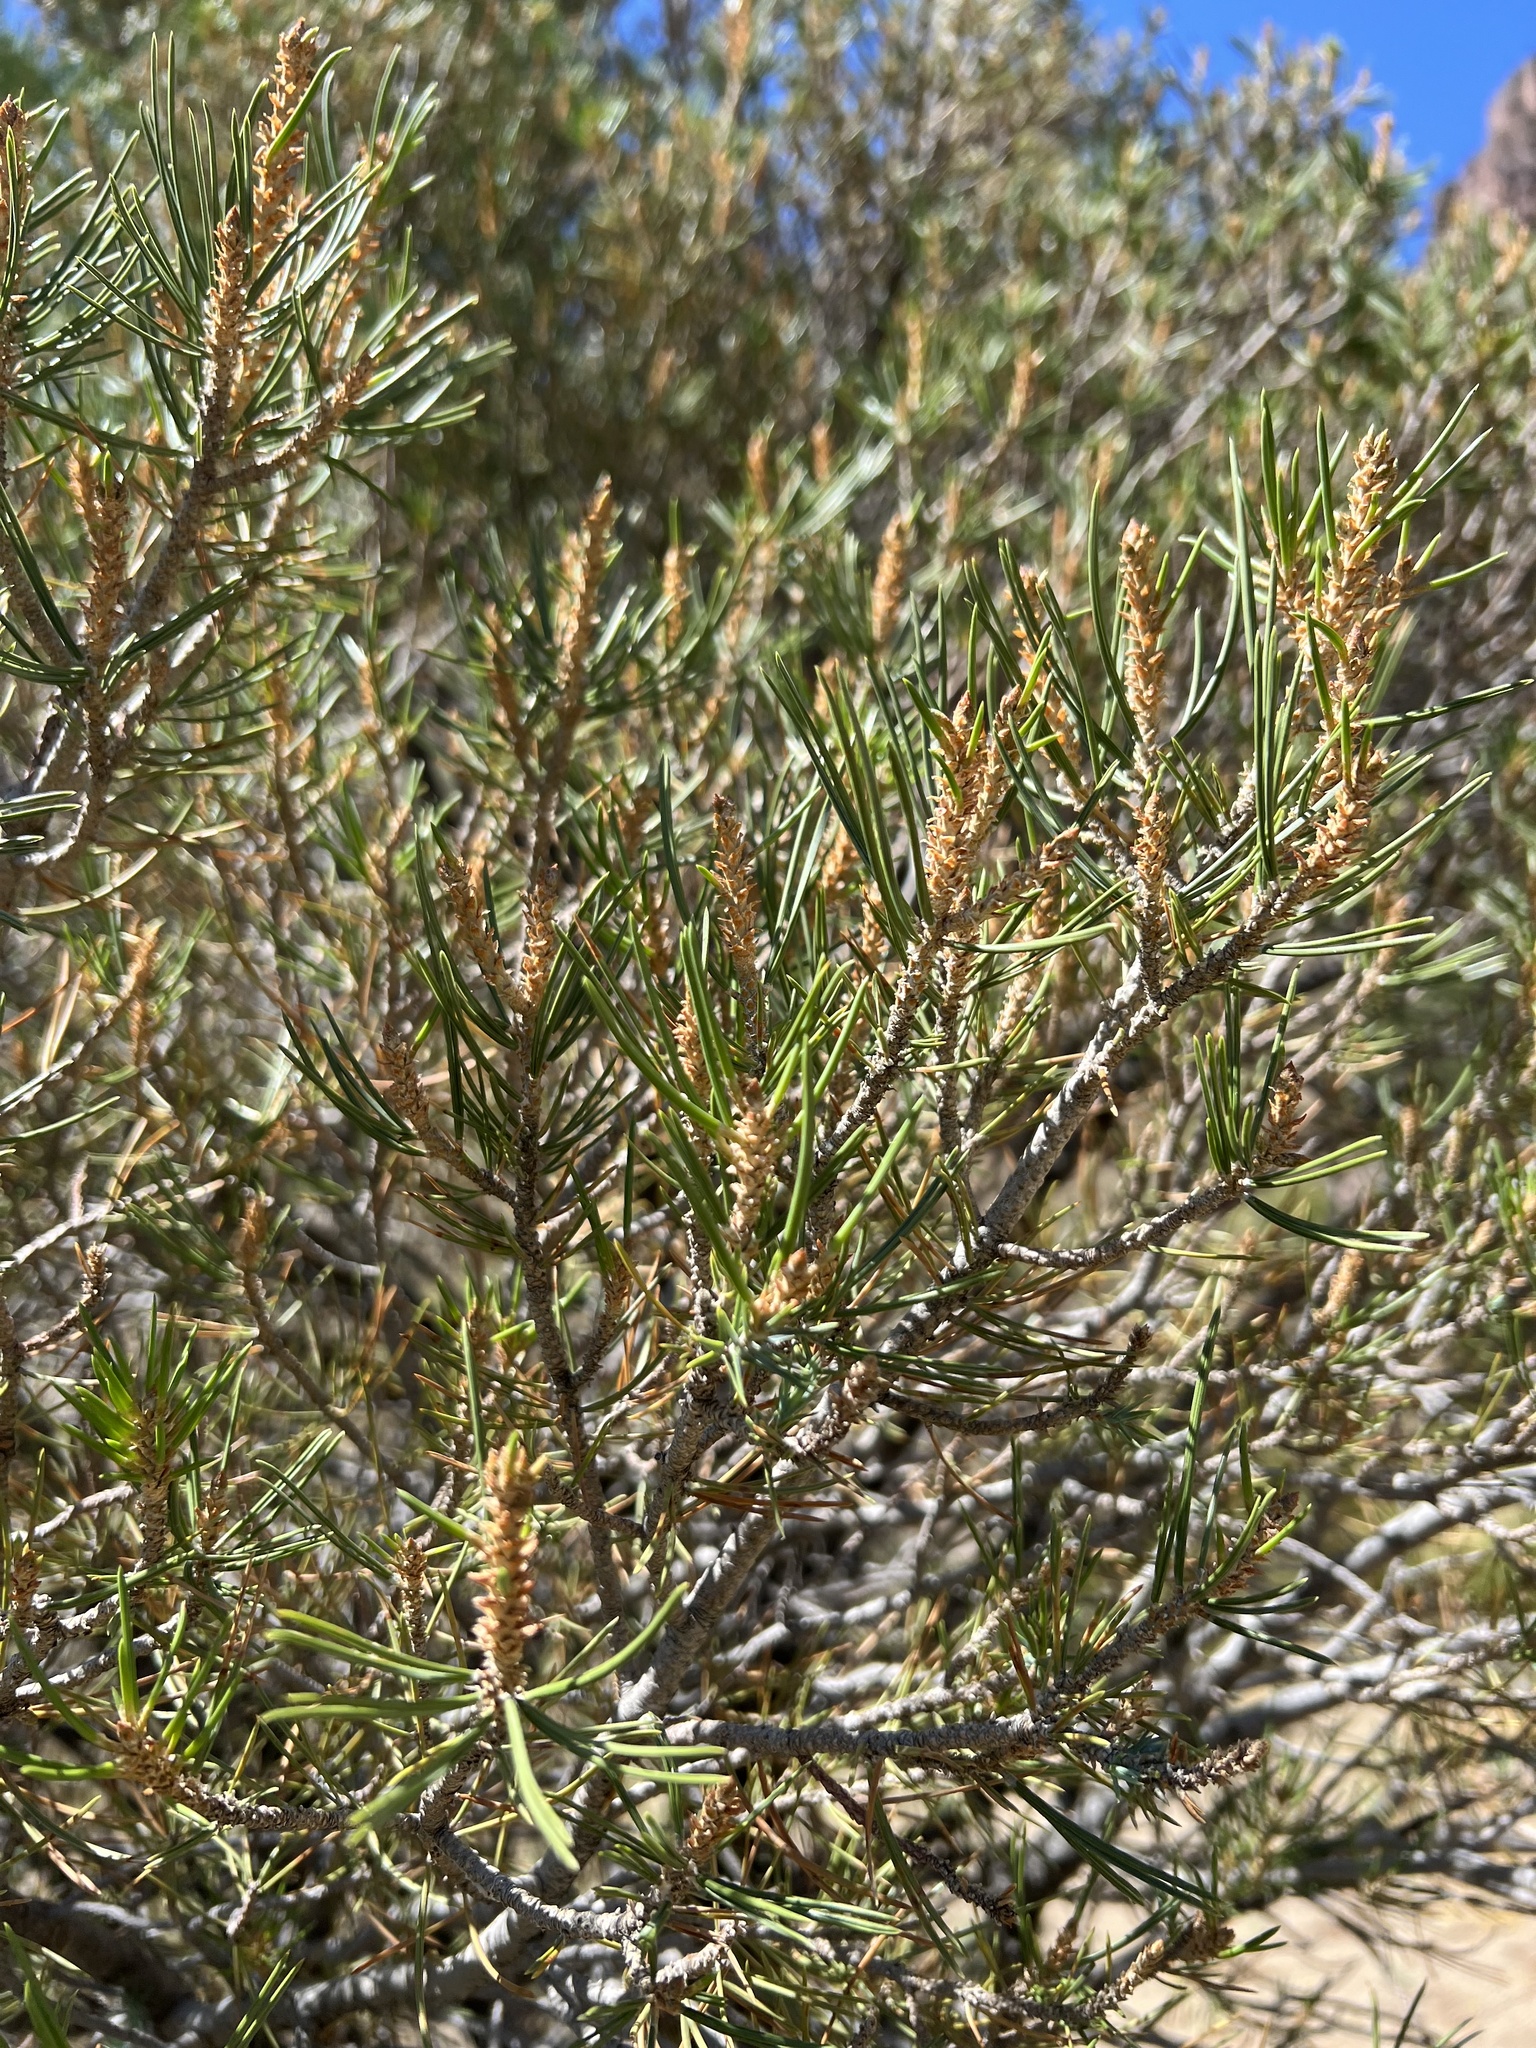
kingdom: Plantae
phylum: Tracheophyta
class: Pinopsida
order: Pinales
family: Pinaceae
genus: Pinus
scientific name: Pinus edulis
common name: Colorado pinyon
